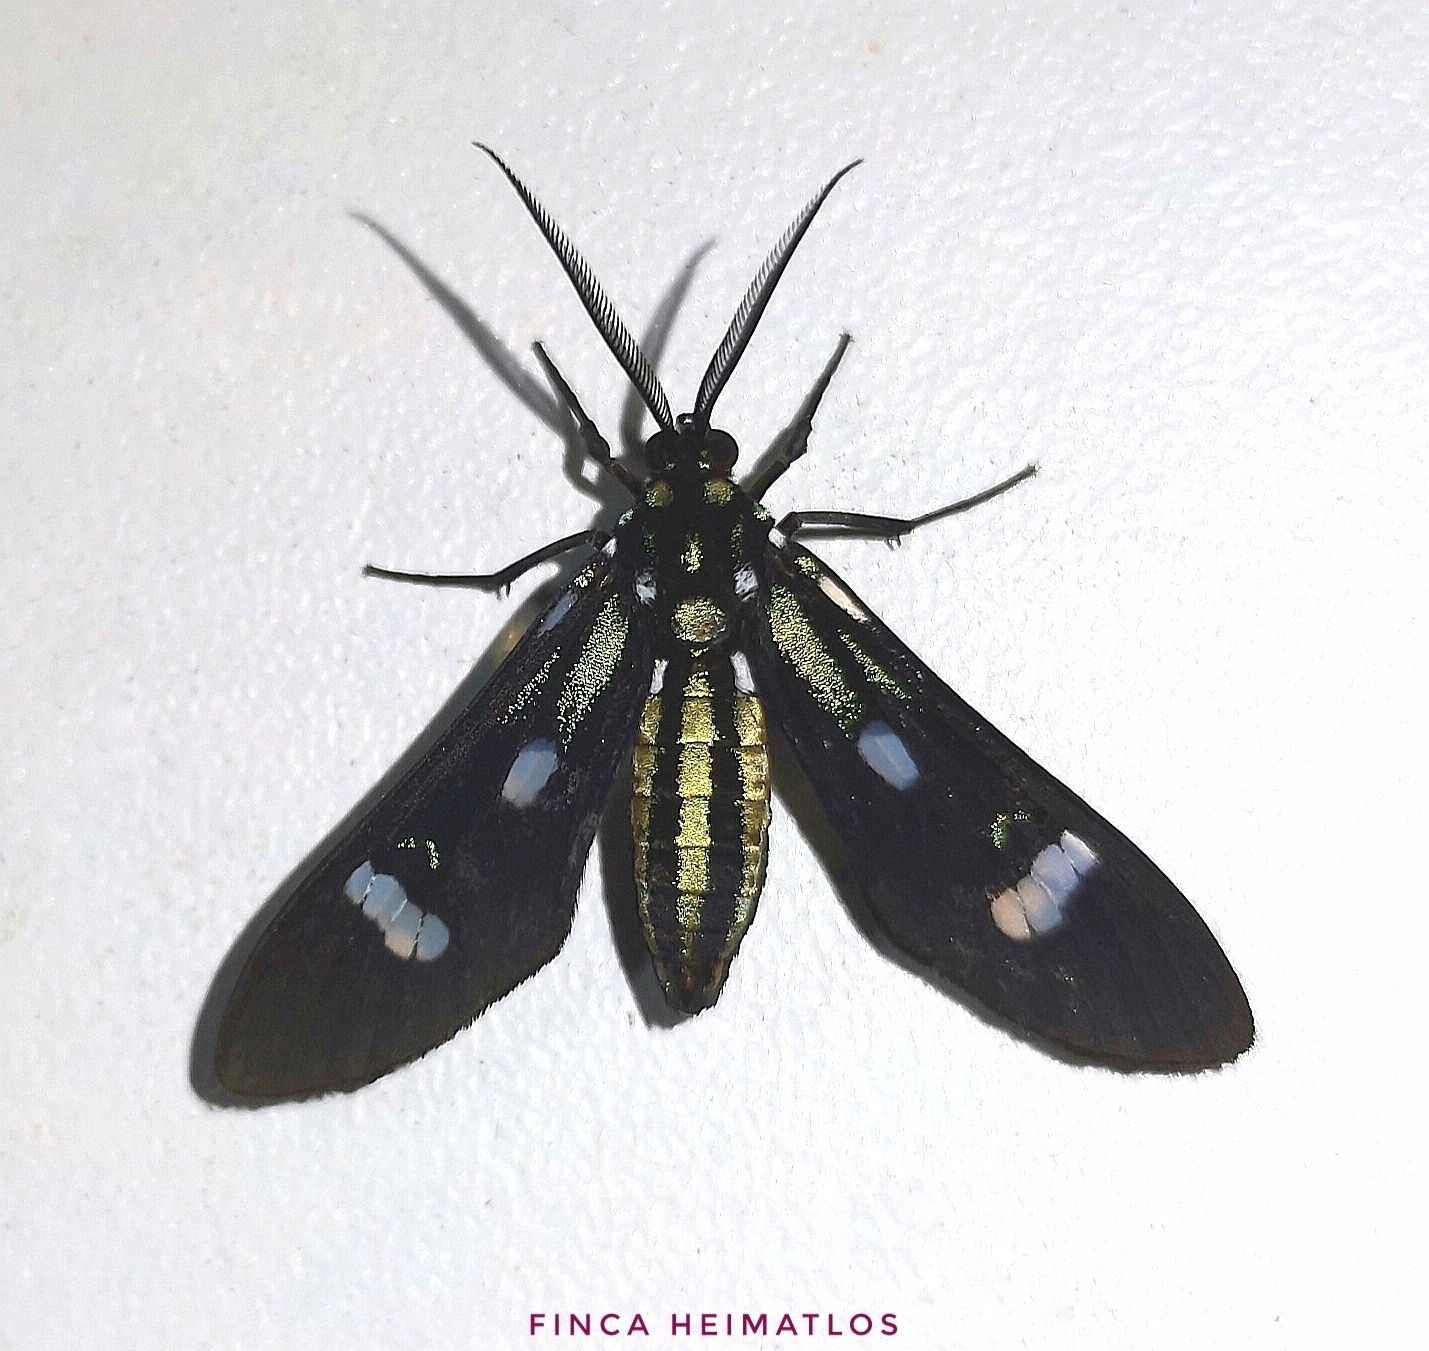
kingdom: Animalia
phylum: Arthropoda
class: Insecta
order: Lepidoptera
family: Erebidae
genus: Leucotmemis
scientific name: Leucotmemis nexa
